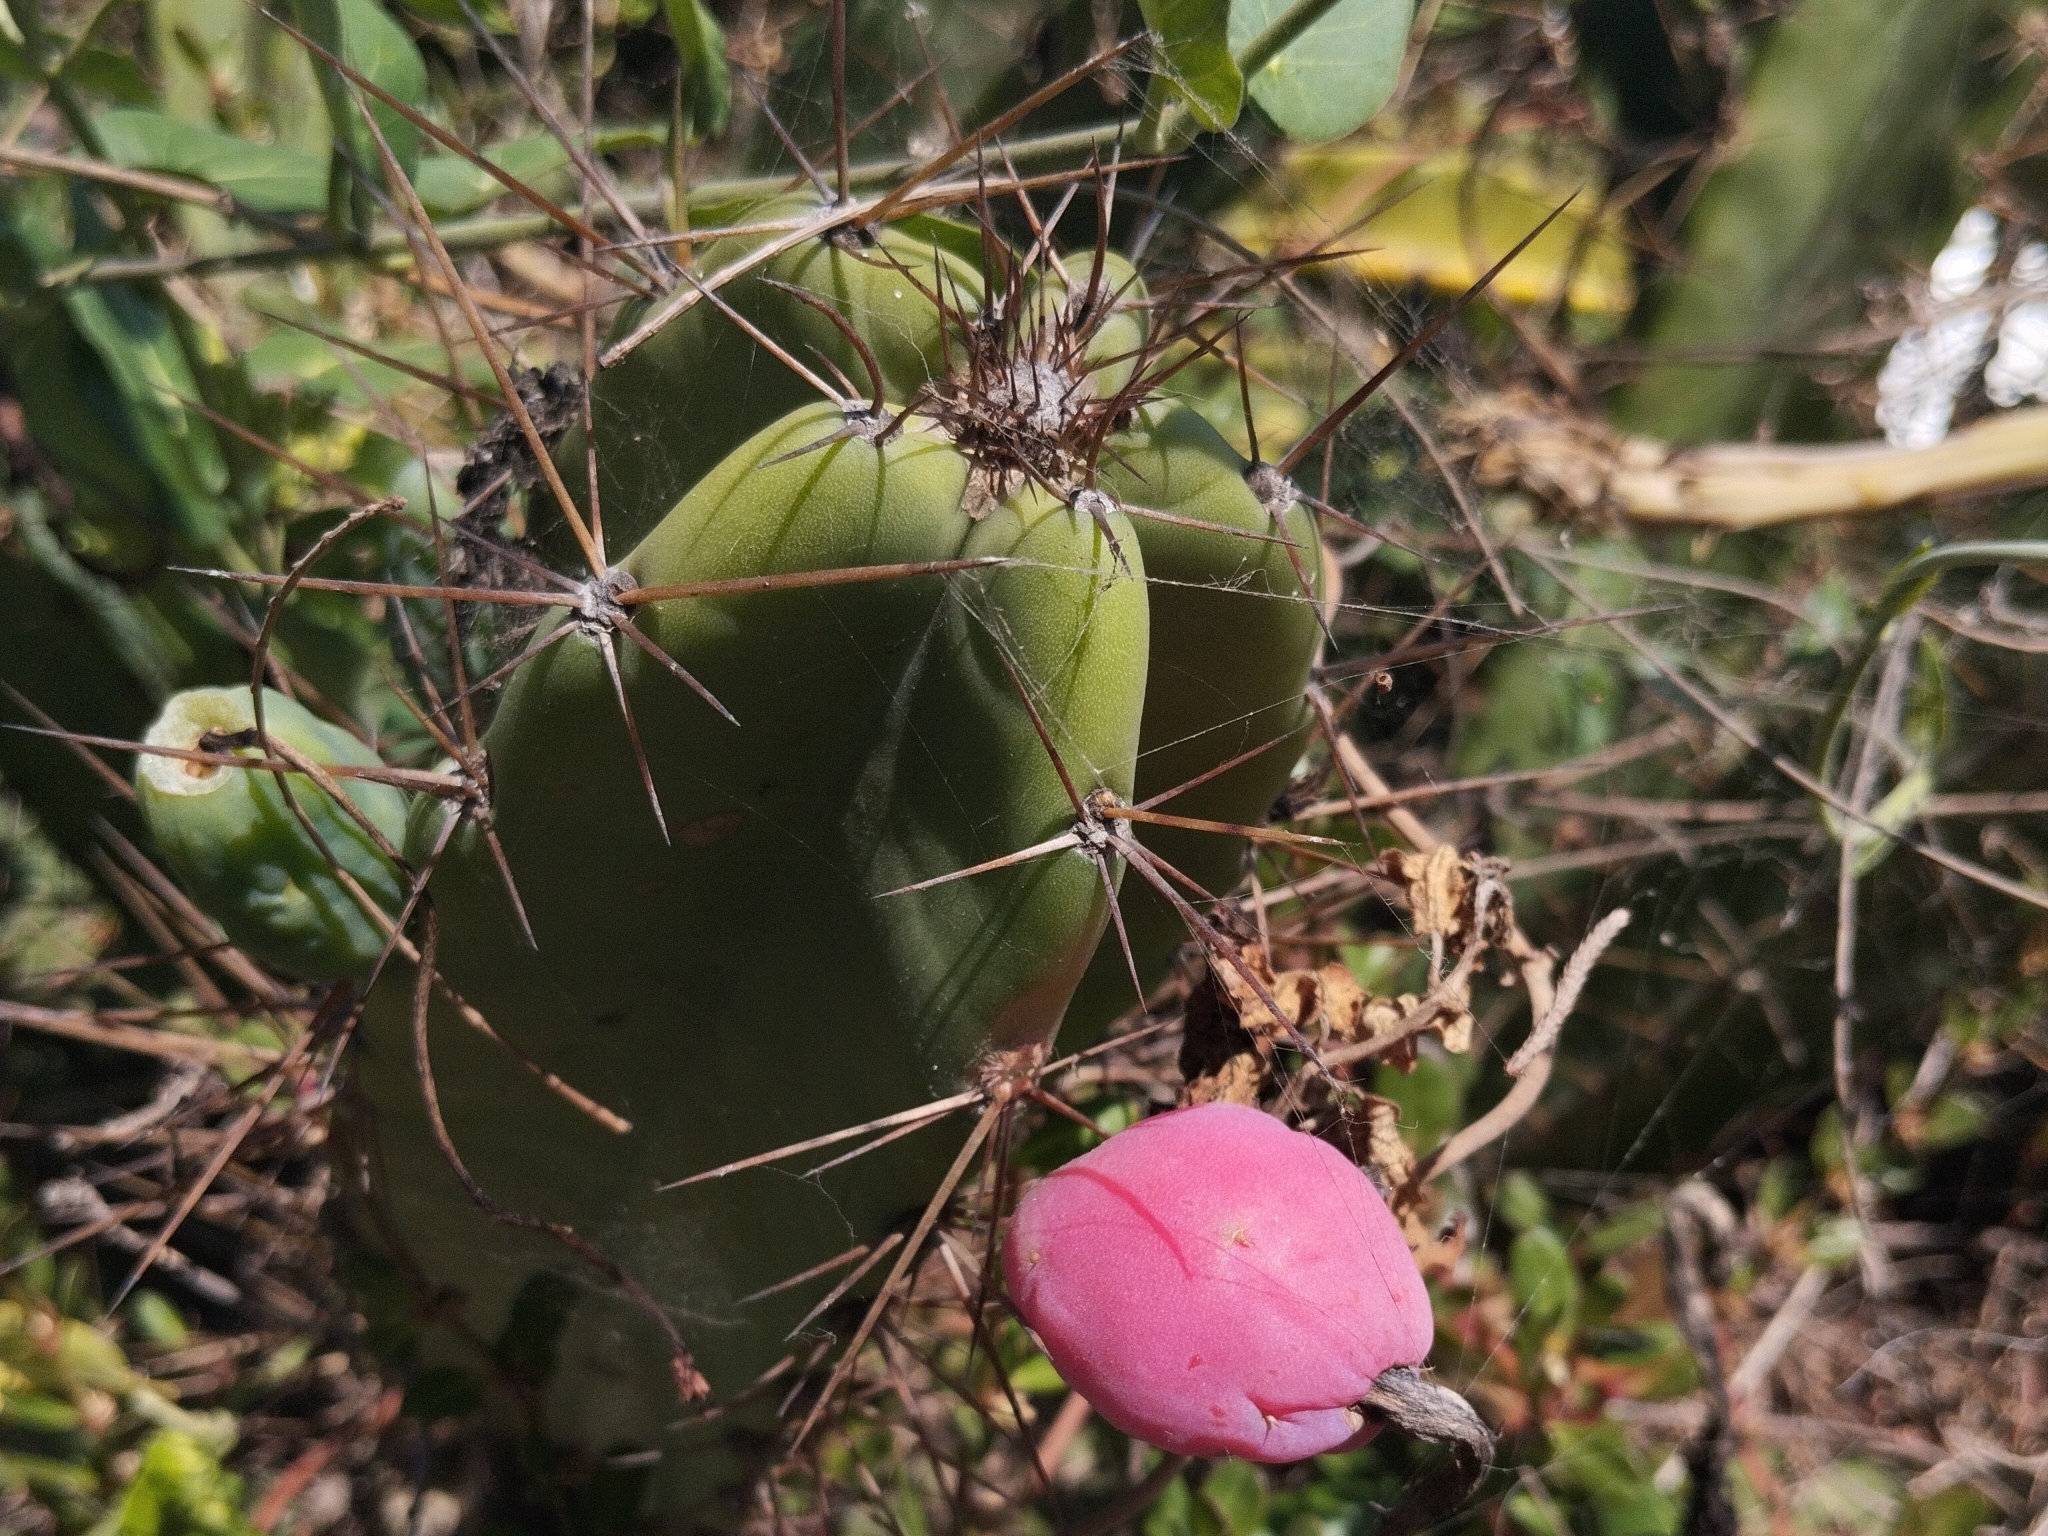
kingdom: Plantae
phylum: Tracheophyta
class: Magnoliopsida
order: Caryophyllales
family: Cactaceae
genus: Cereus
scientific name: Cereus fernambucensis
